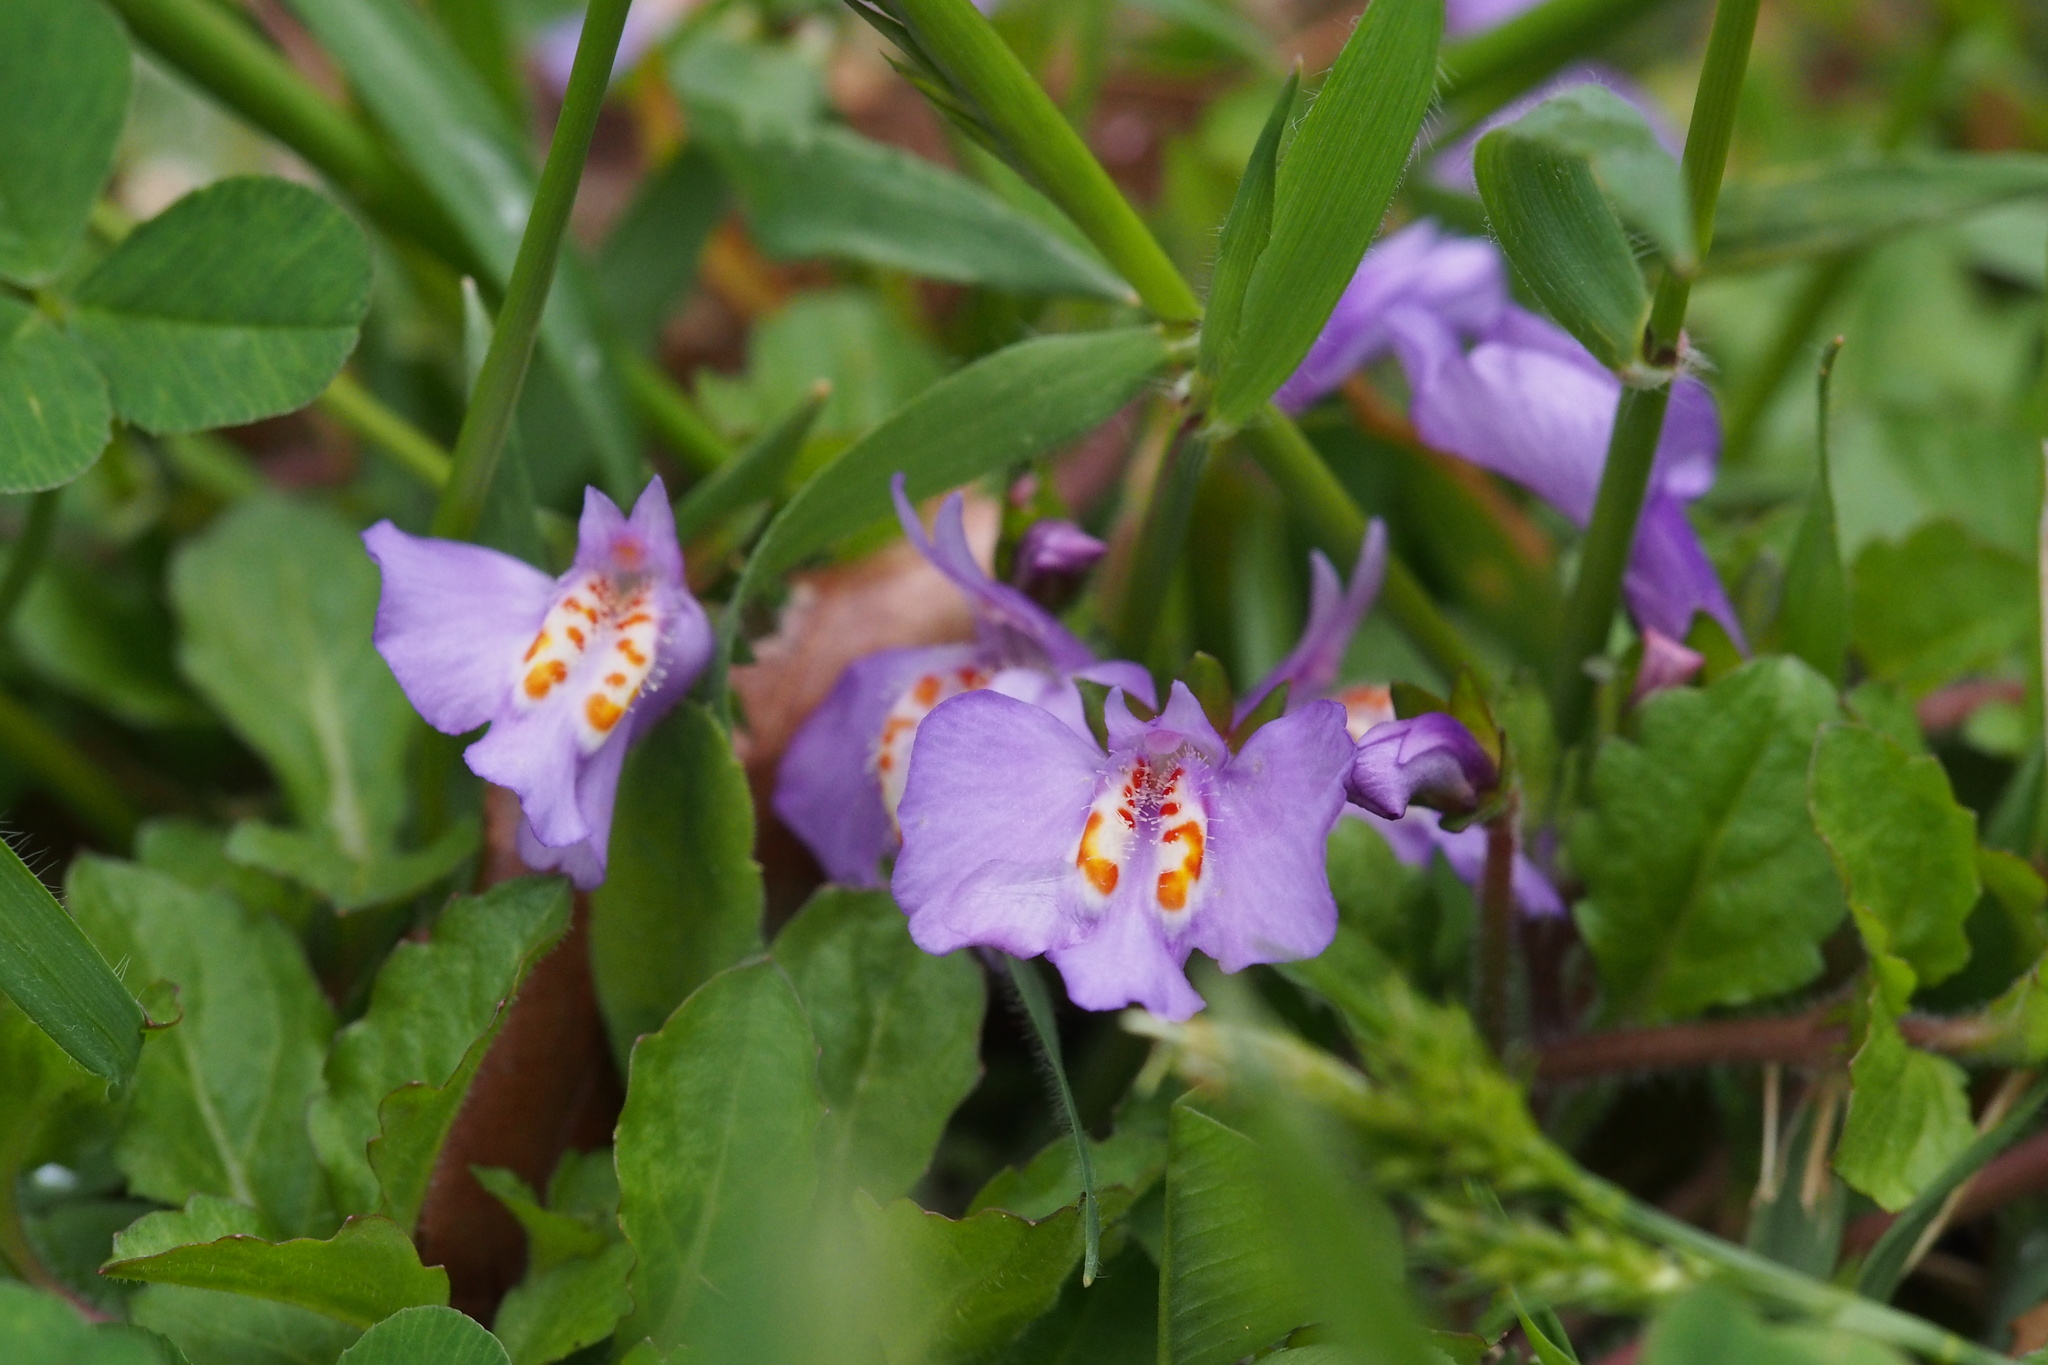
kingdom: Plantae
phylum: Tracheophyta
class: Magnoliopsida
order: Lamiales
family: Mazaceae
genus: Mazus
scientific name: Mazus miquelii
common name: Miquel's mazus
